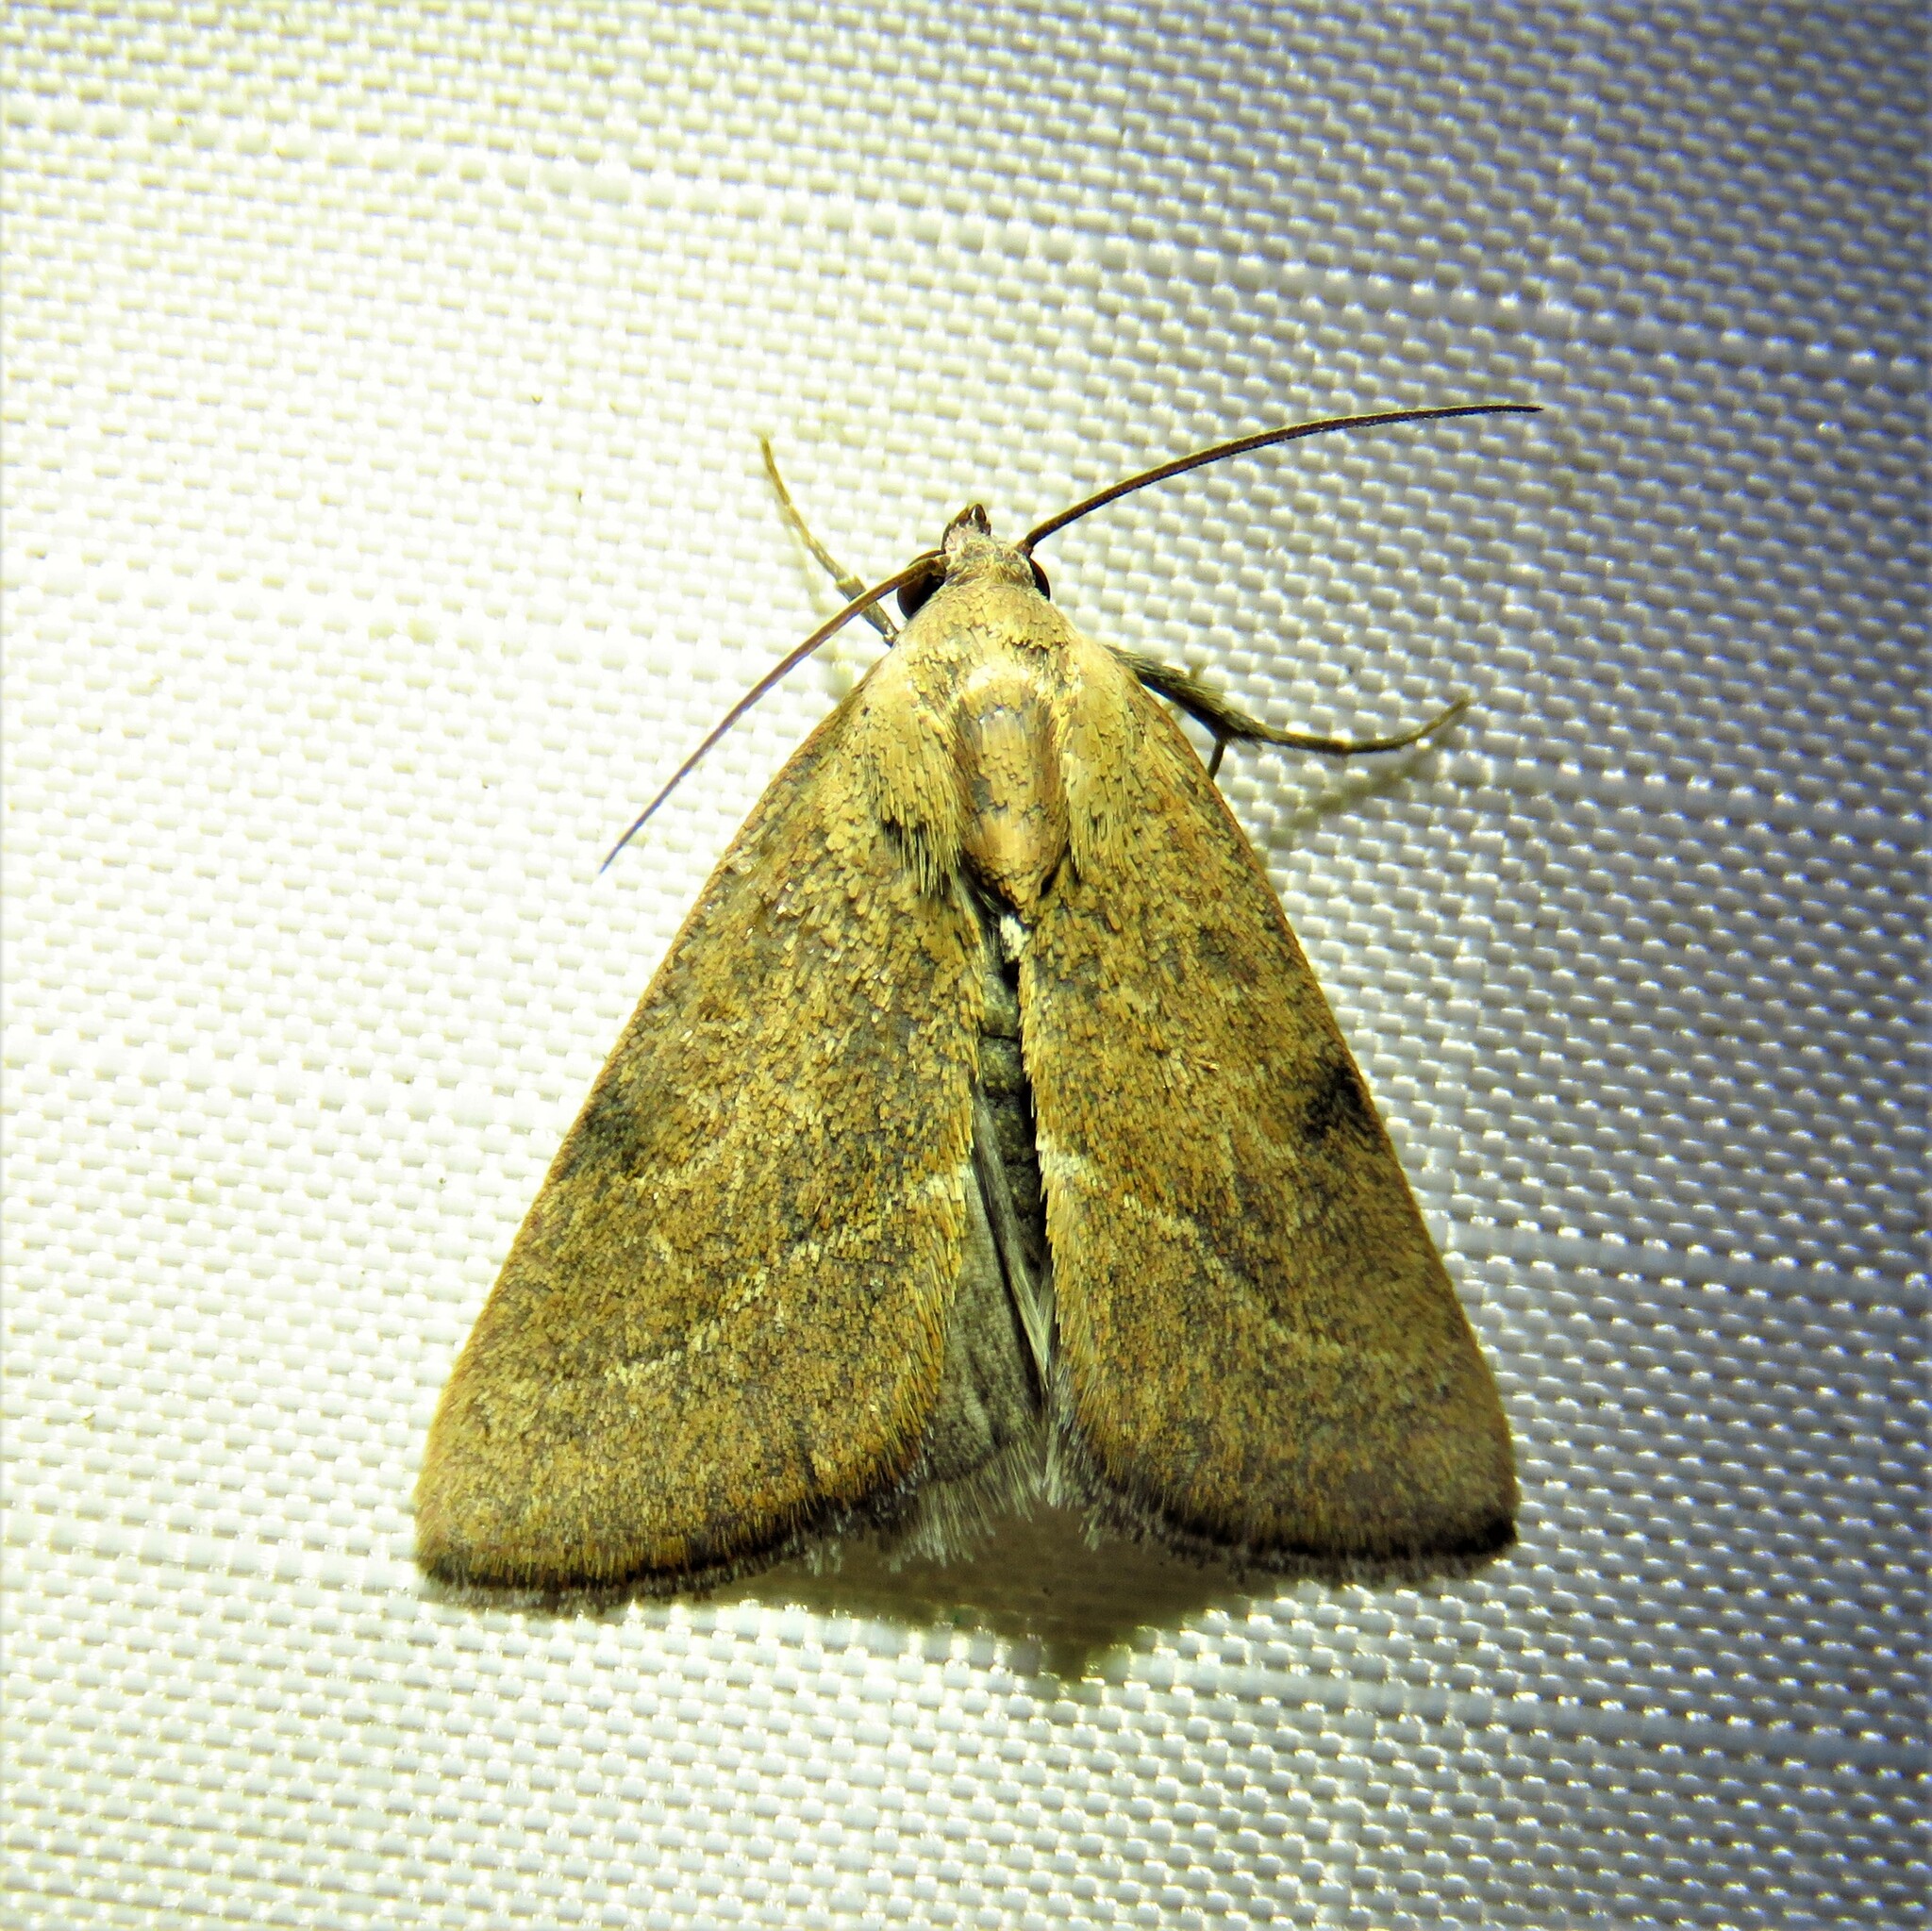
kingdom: Animalia
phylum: Arthropoda
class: Insecta
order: Lepidoptera
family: Noctuidae
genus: Galgula
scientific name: Galgula partita
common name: Wedgeling
